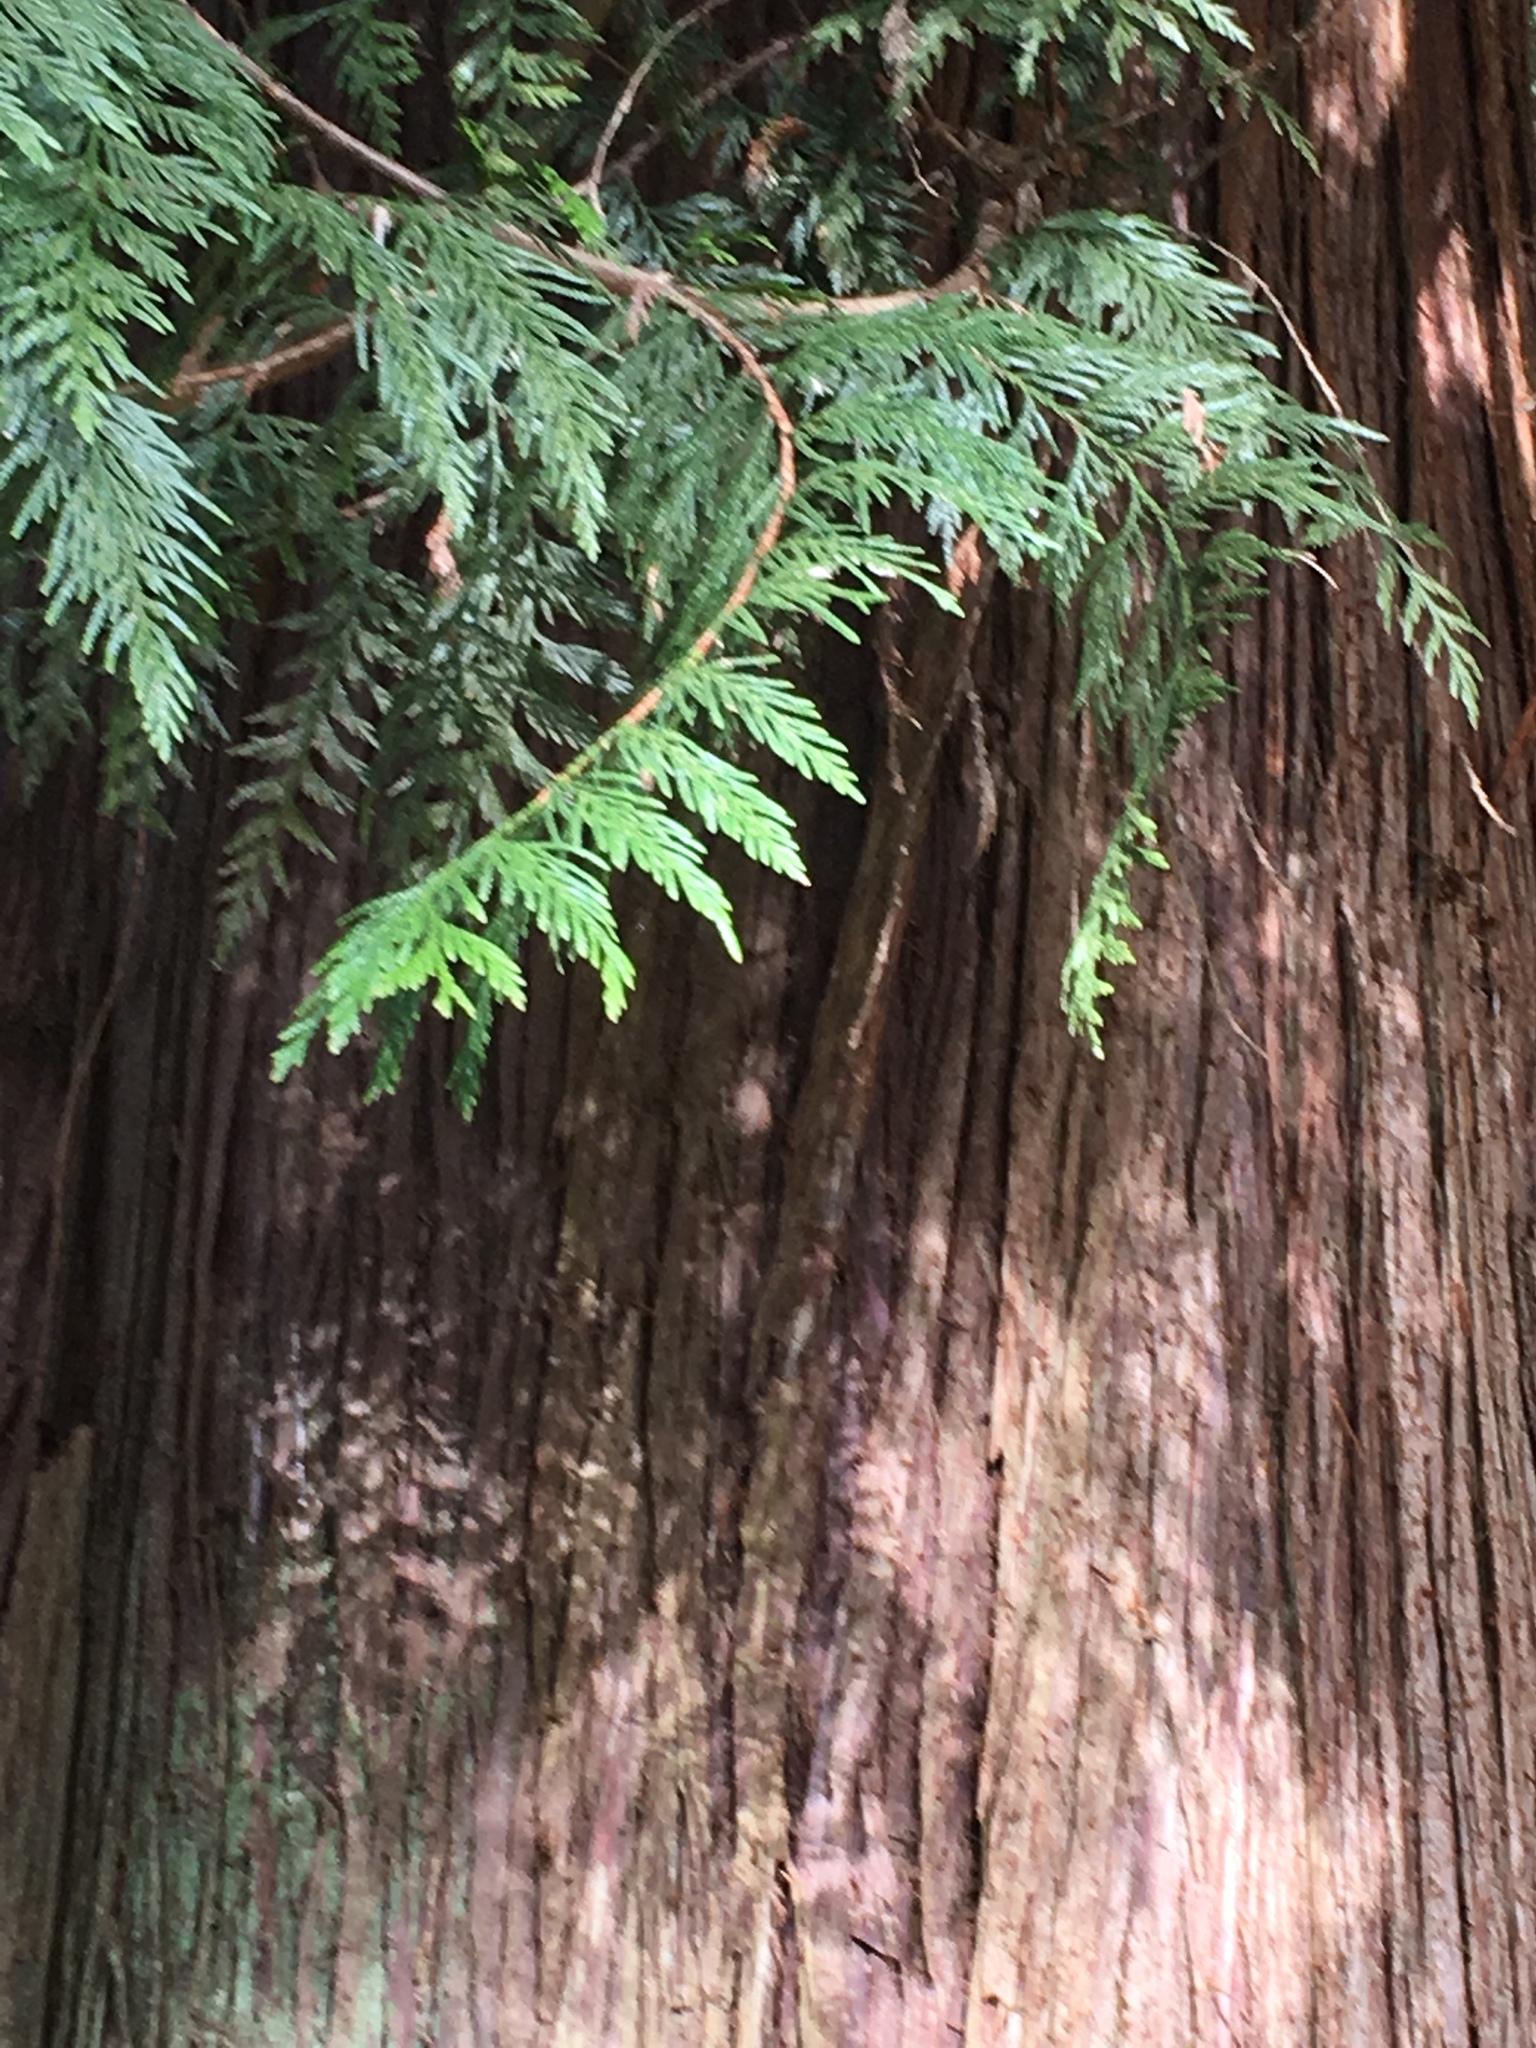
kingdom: Plantae
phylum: Tracheophyta
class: Pinopsida
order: Pinales
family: Cupressaceae
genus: Thuja
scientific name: Thuja plicata
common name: Western red-cedar
